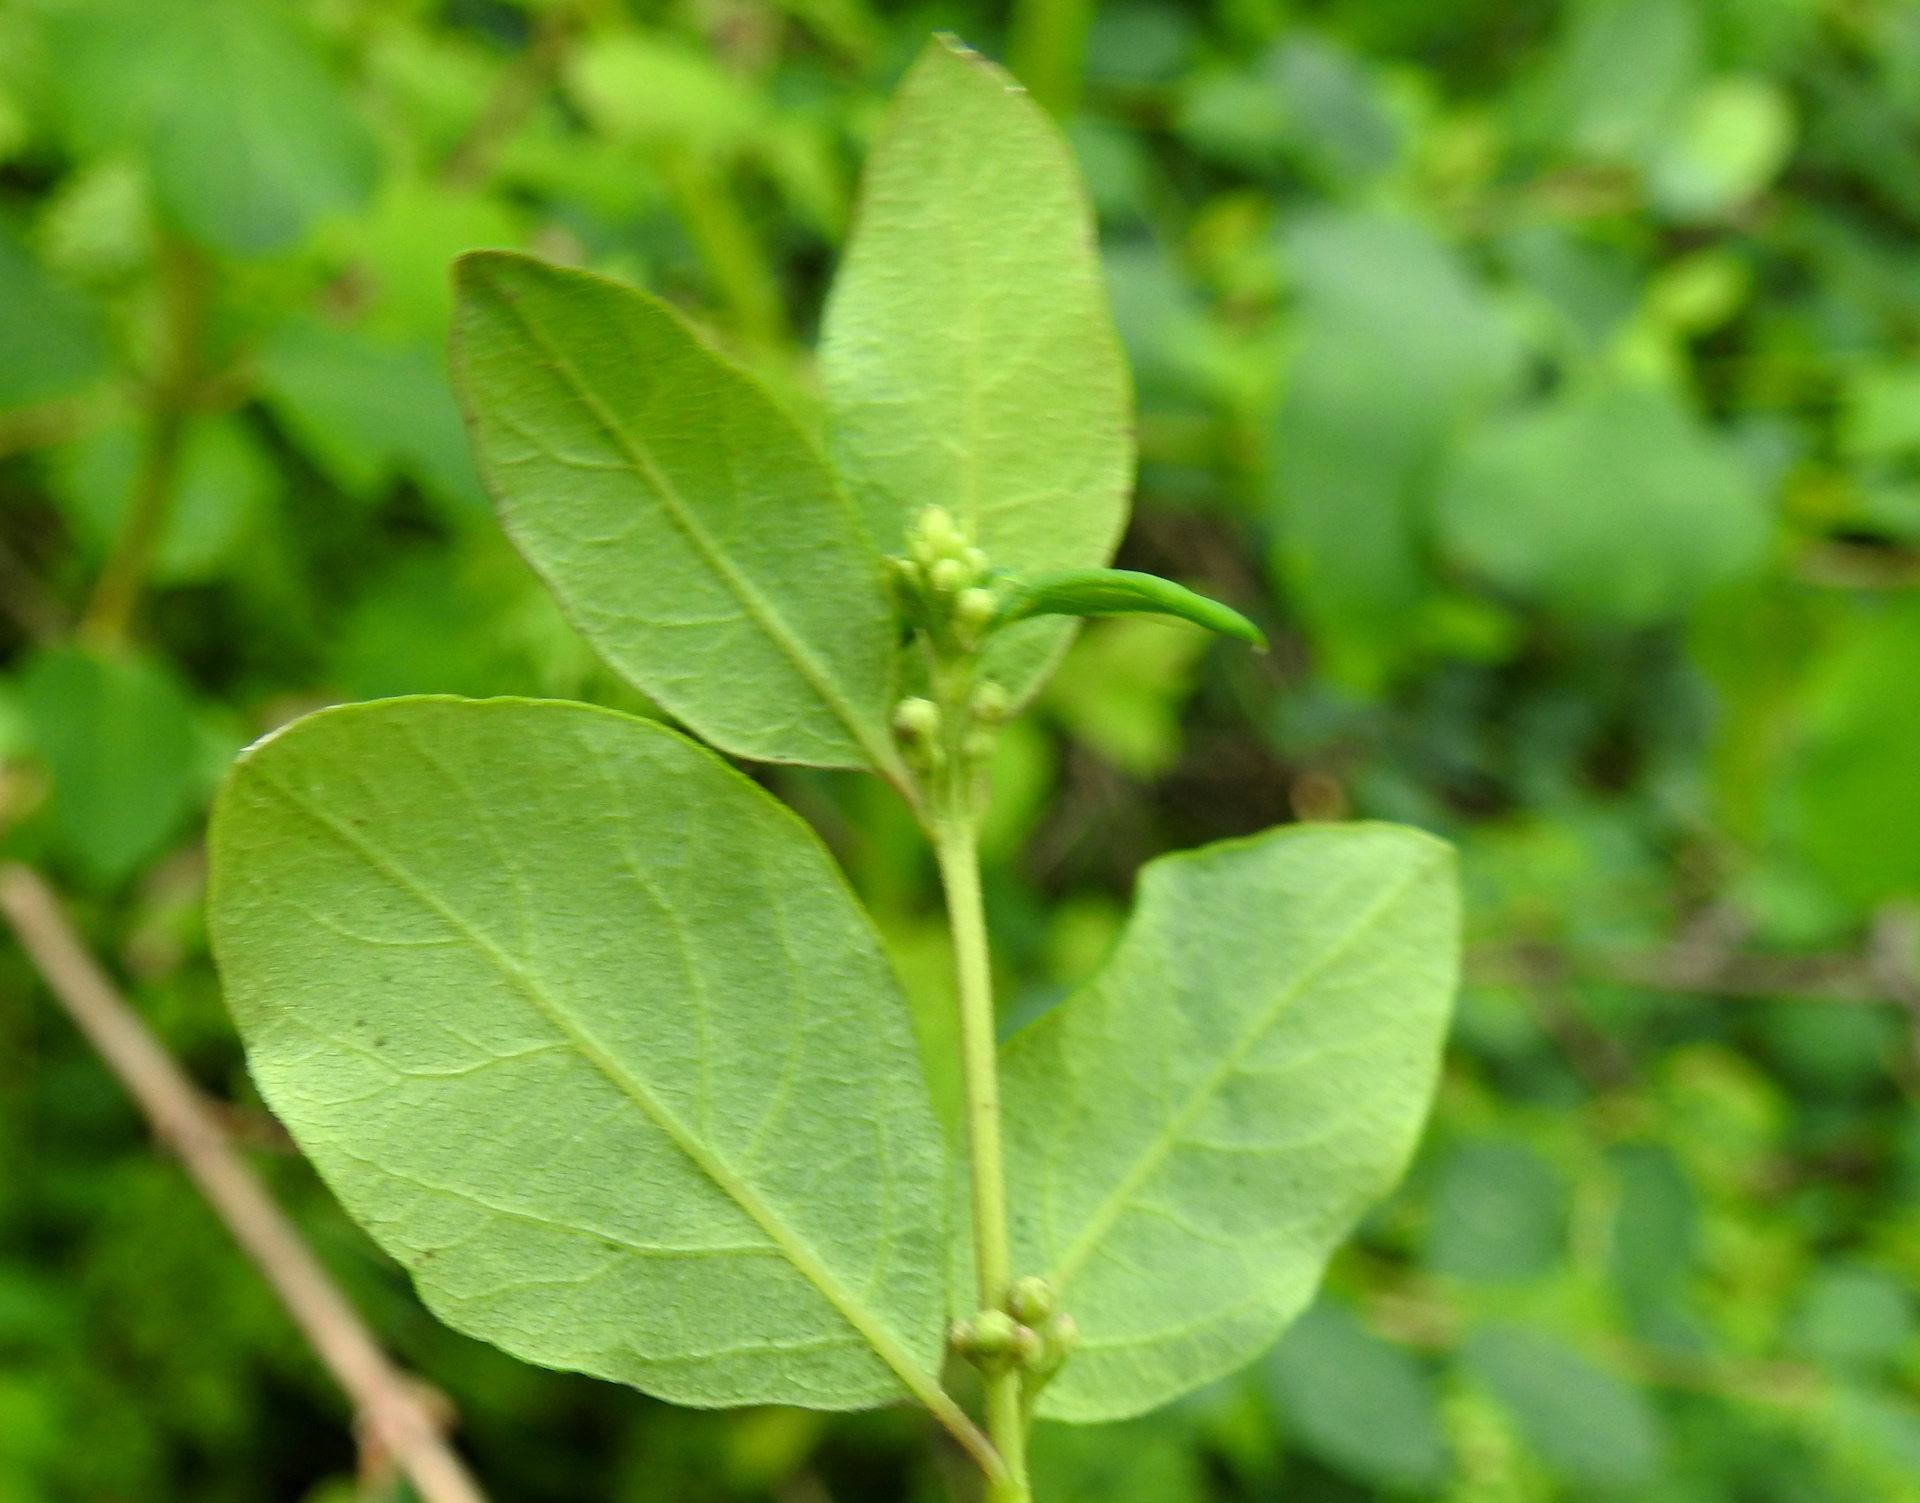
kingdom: Plantae
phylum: Tracheophyta
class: Magnoliopsida
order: Dipsacales
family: Caprifoliaceae
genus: Symphoricarpos
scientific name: Symphoricarpos albus
